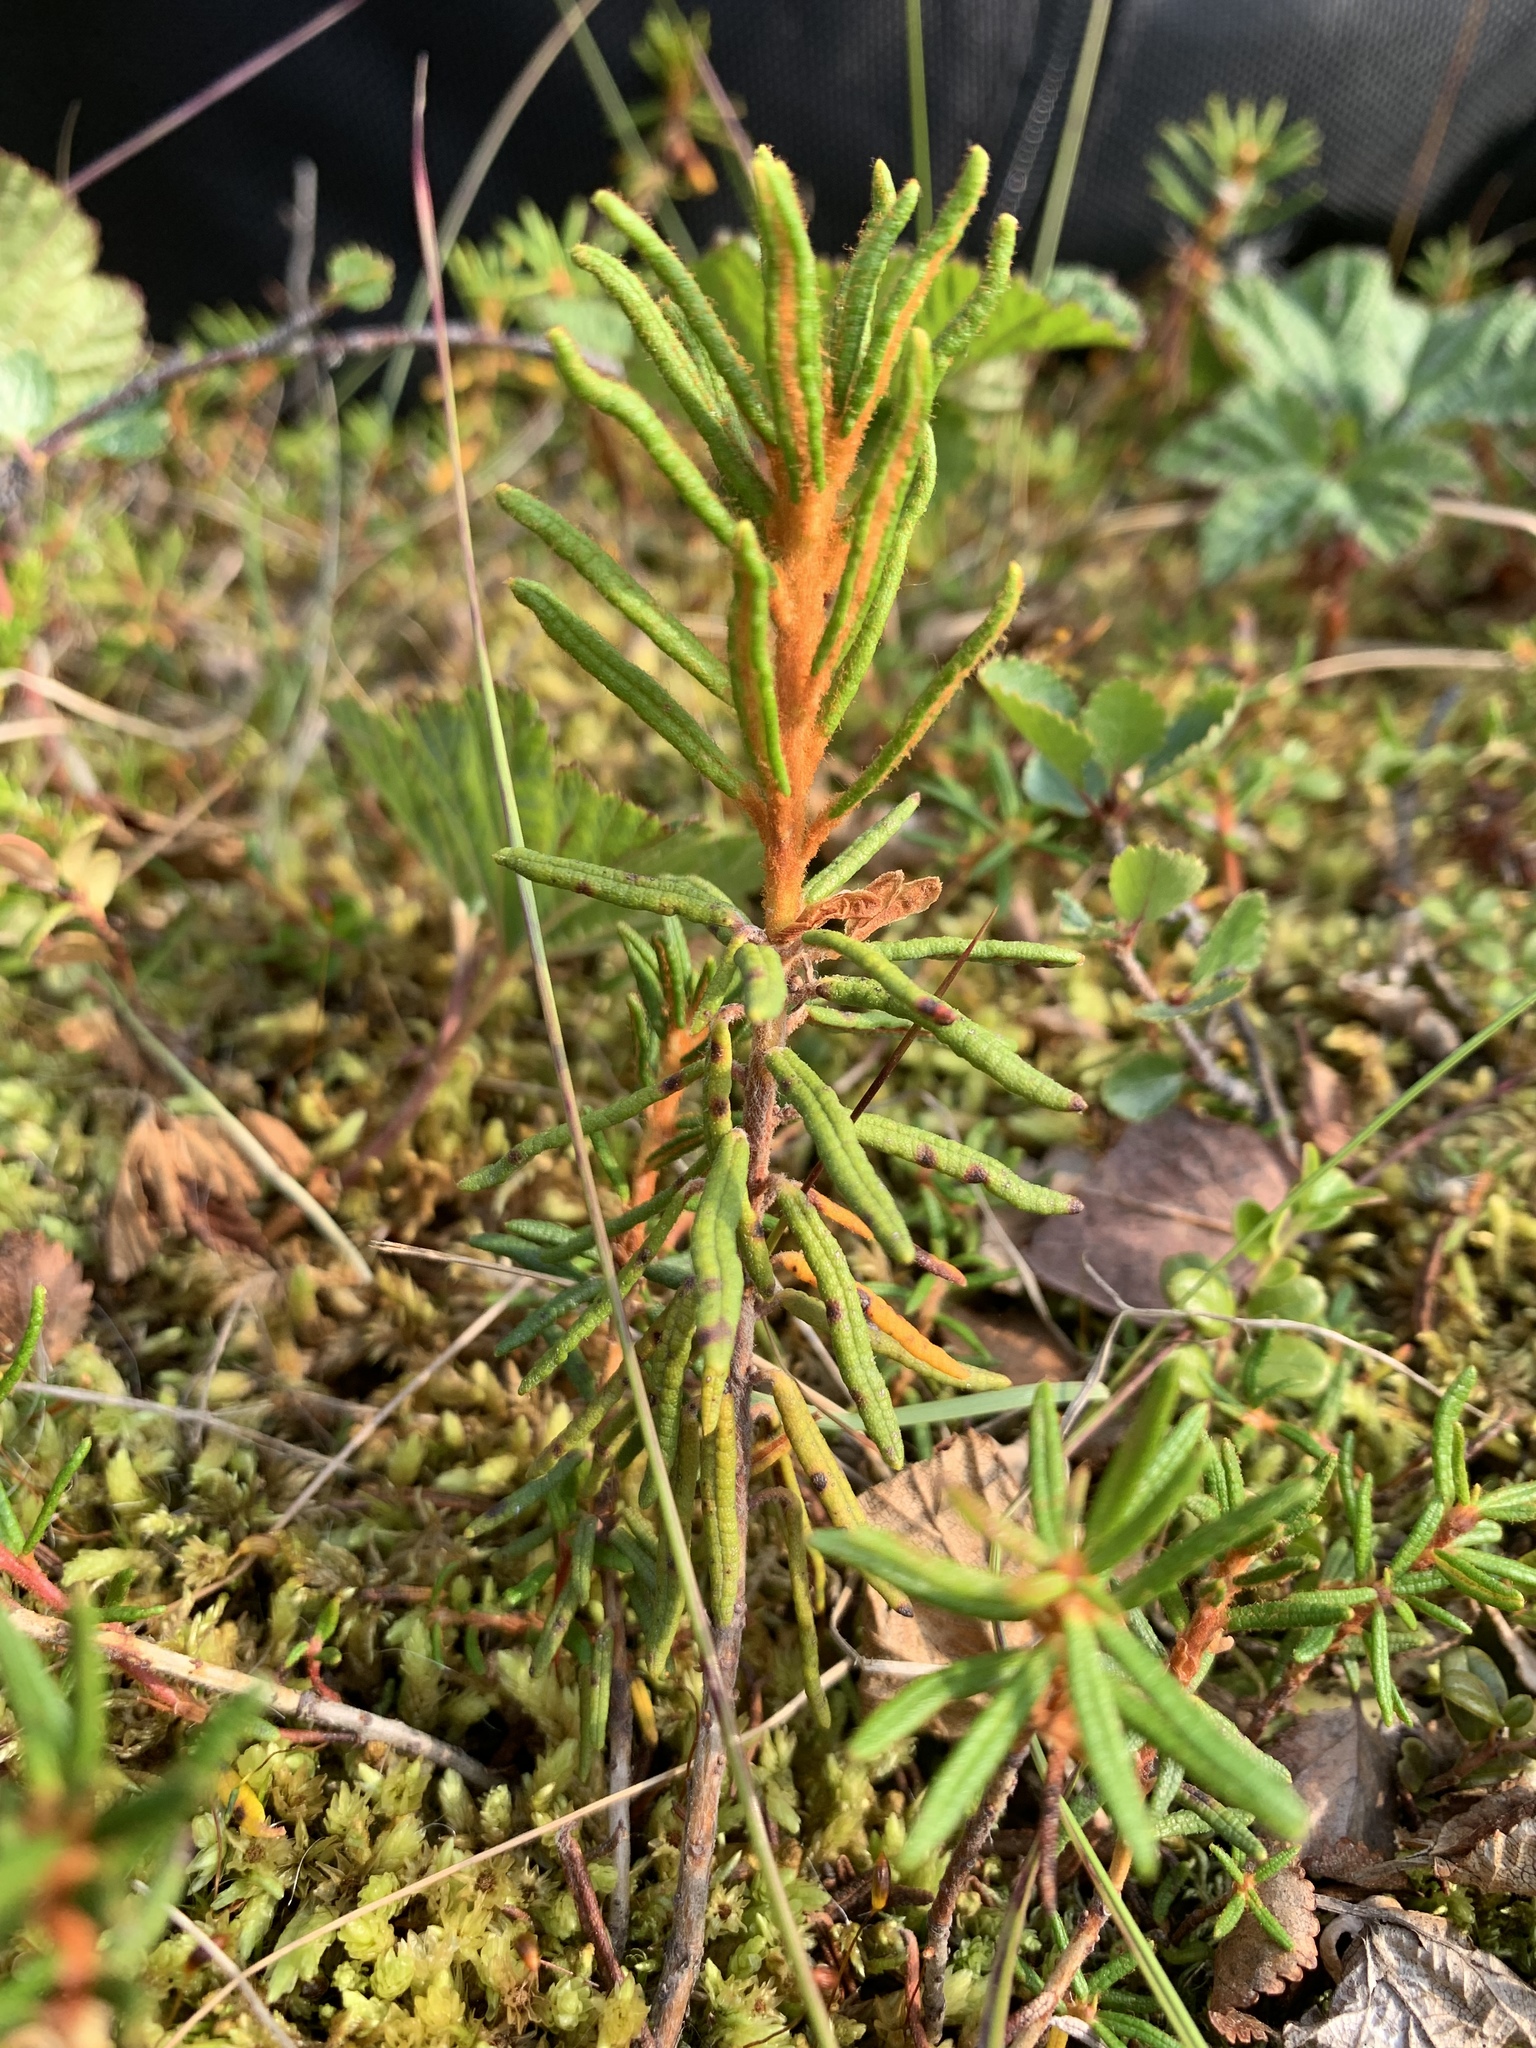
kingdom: Plantae
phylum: Tracheophyta
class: Magnoliopsida
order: Ericales
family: Ericaceae
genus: Rhododendron
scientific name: Rhododendron tomentosum
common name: Marsh labrador tea
